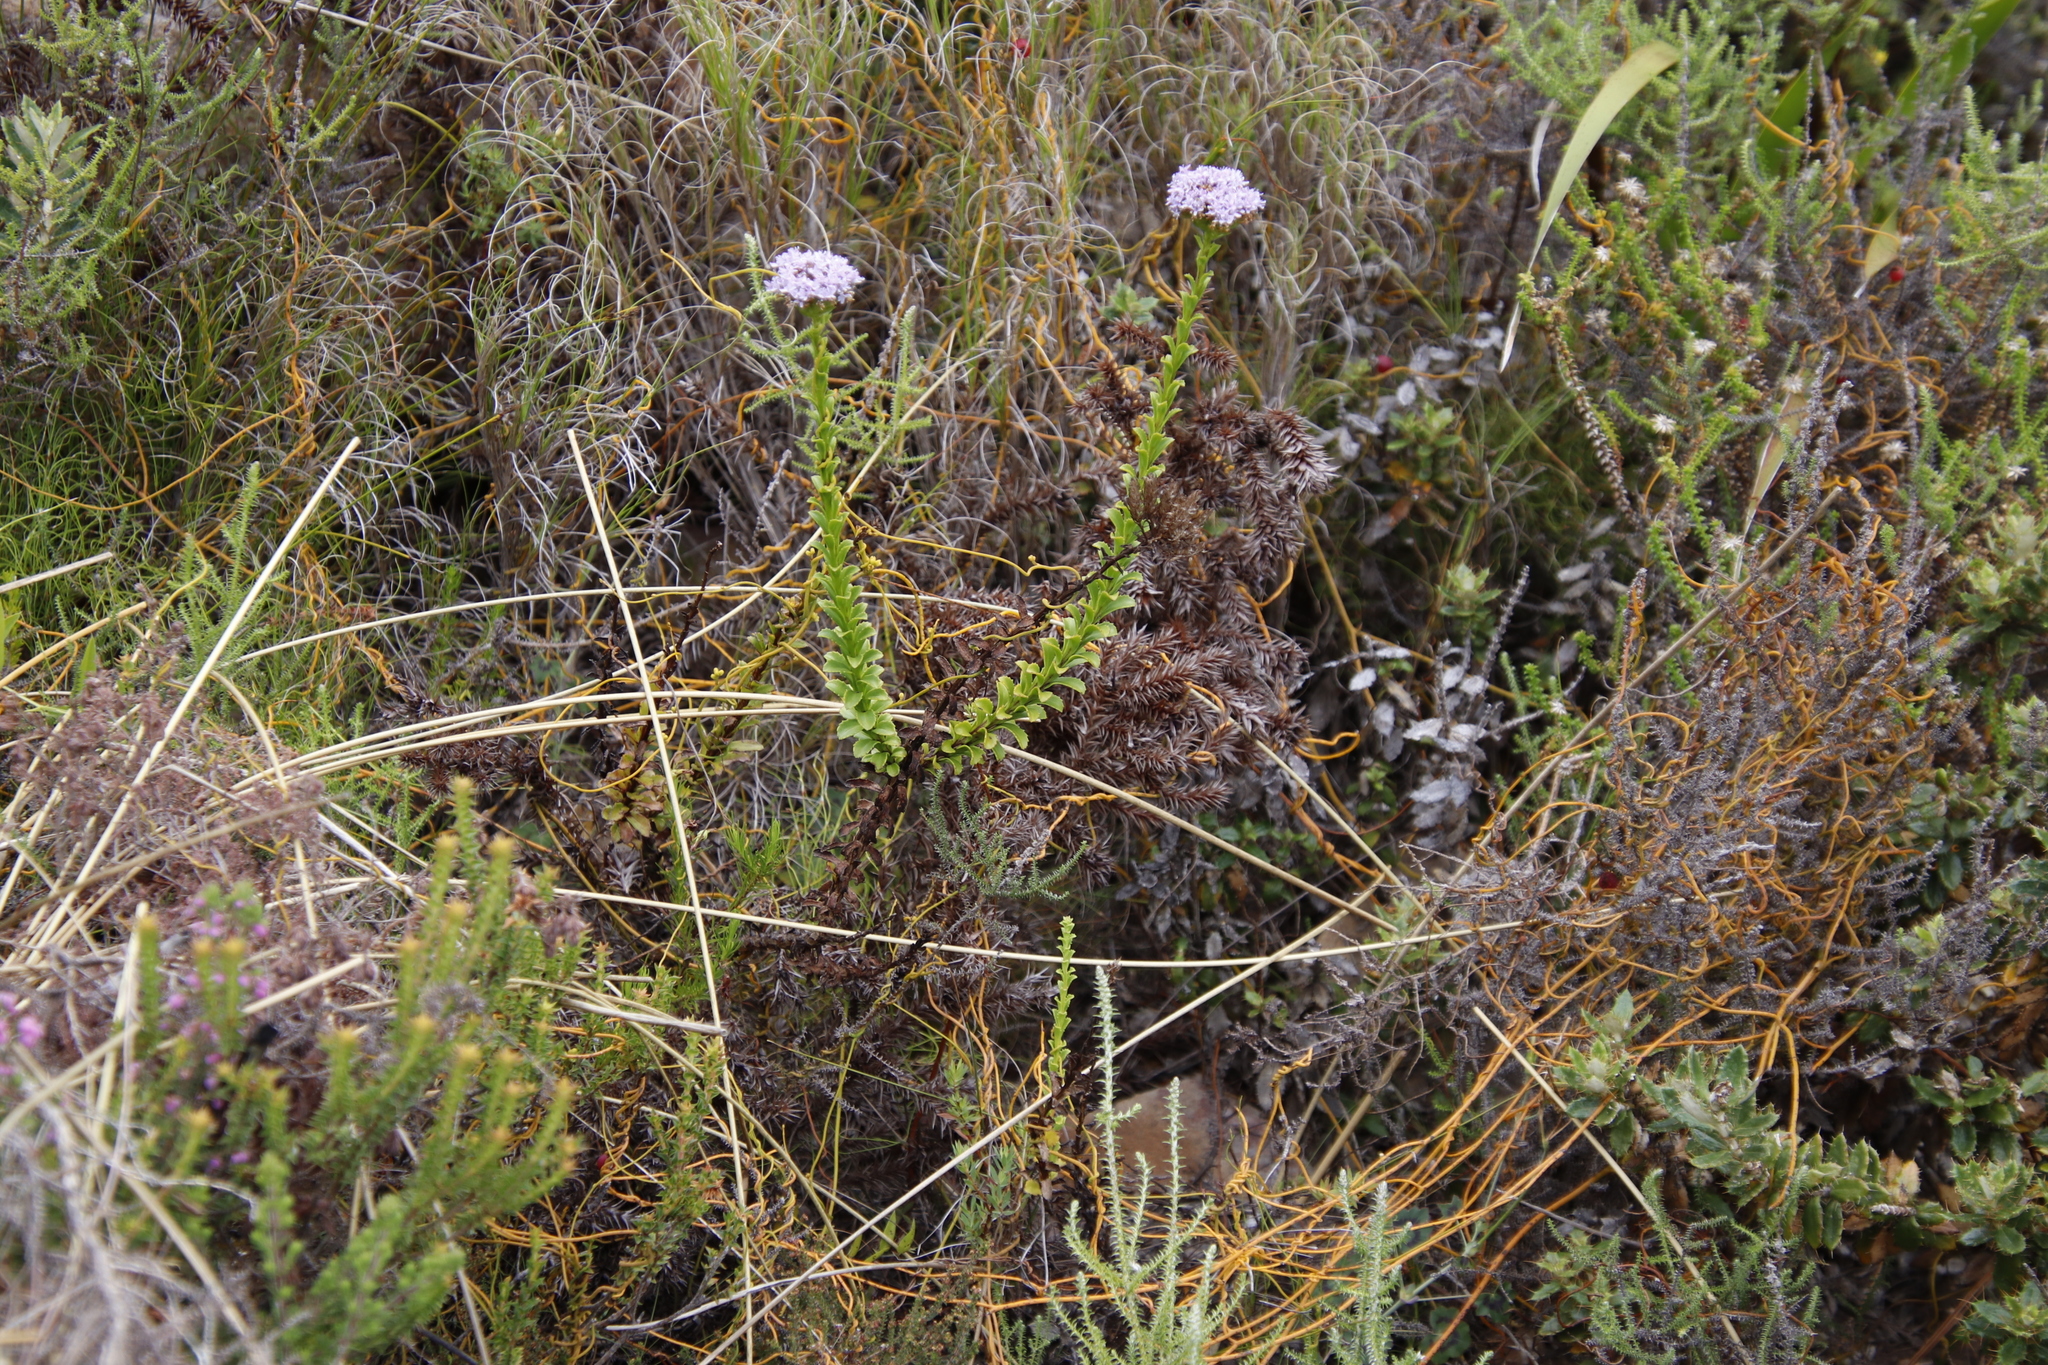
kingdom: Plantae
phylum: Tracheophyta
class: Magnoliopsida
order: Lamiales
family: Scrophulariaceae
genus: Pseudoselago
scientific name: Pseudoselago serrata
